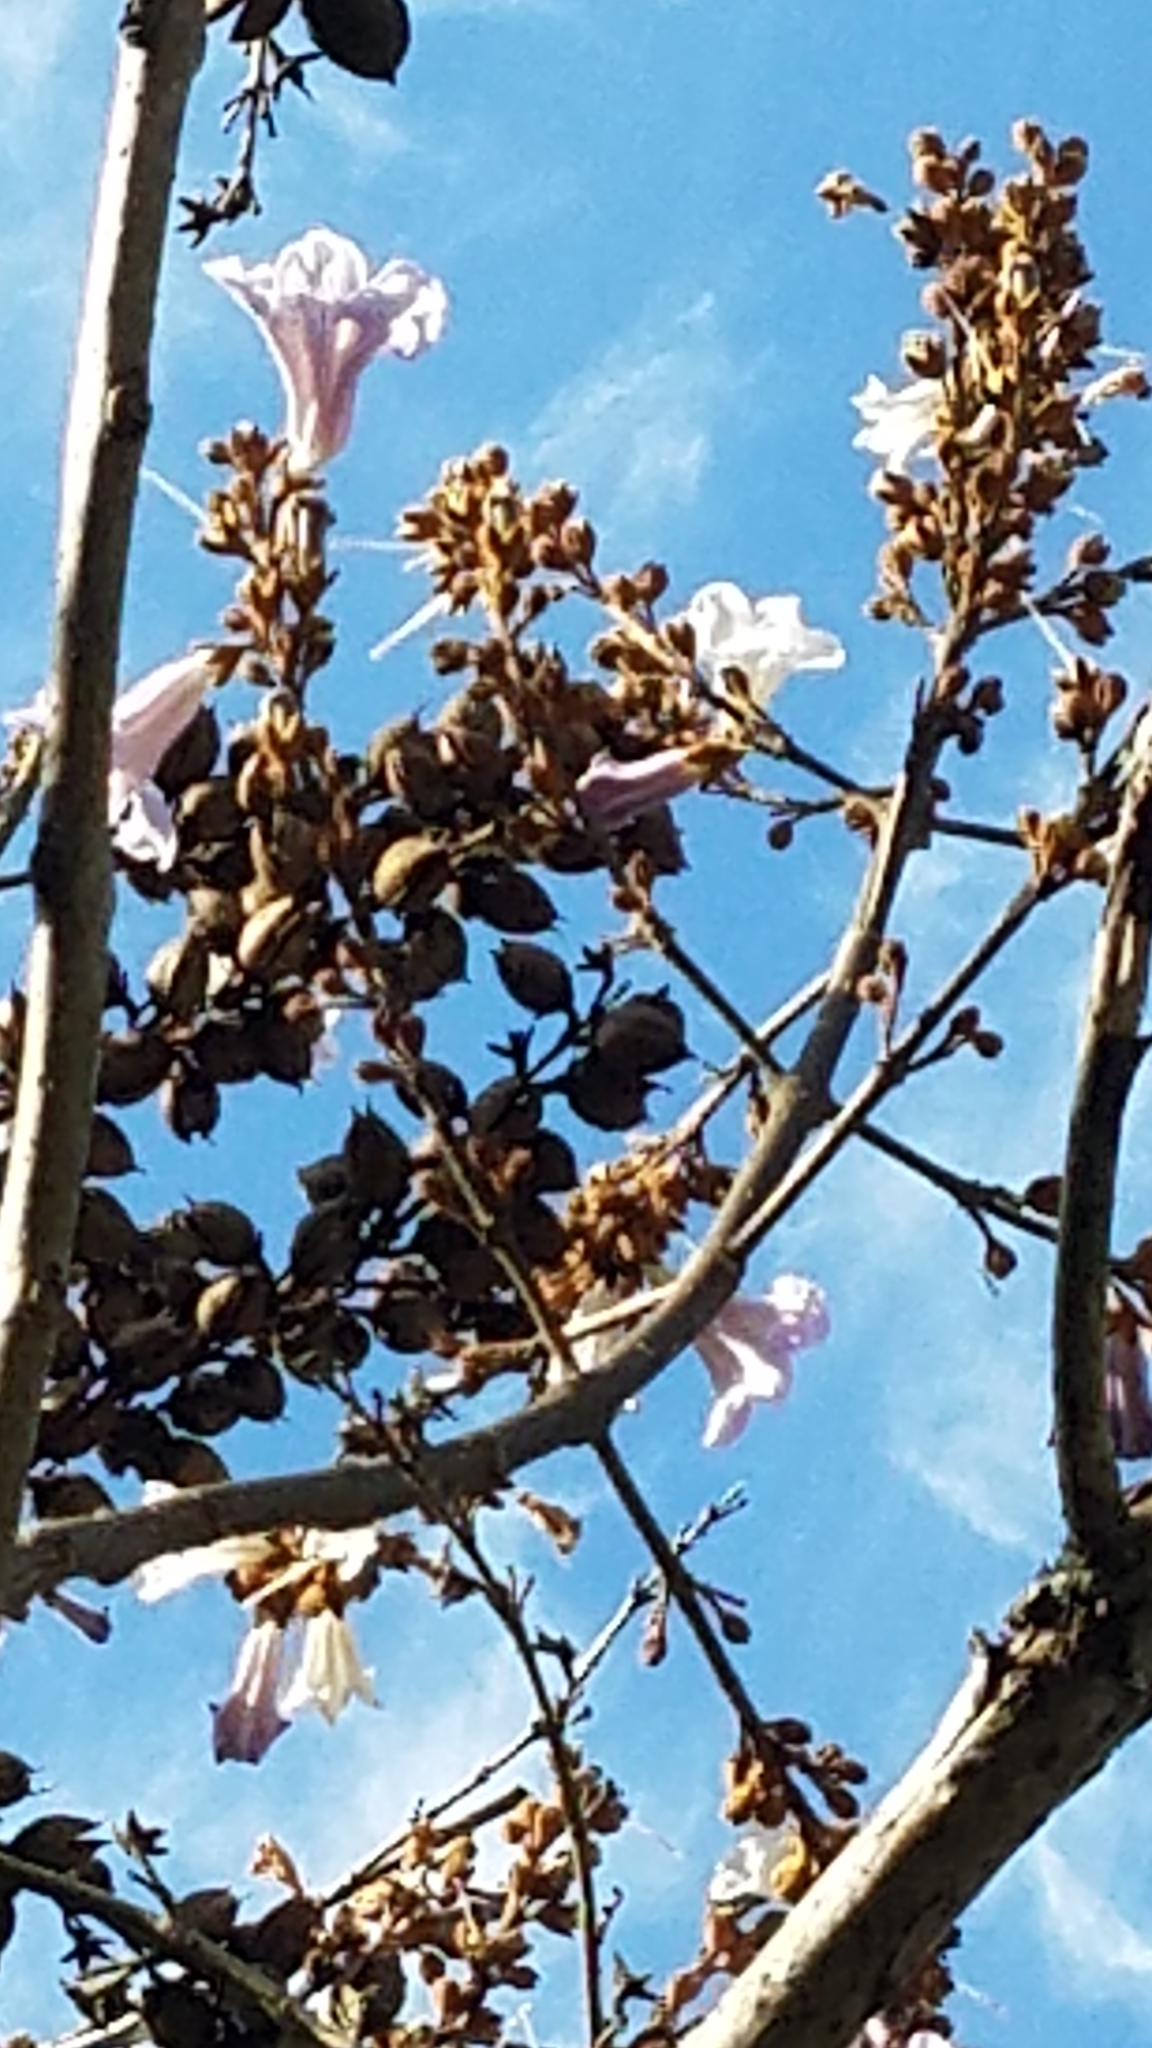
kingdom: Plantae
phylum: Tracheophyta
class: Magnoliopsida
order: Lamiales
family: Paulowniaceae
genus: Paulownia
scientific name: Paulownia tomentosa
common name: Foxglove-tree
